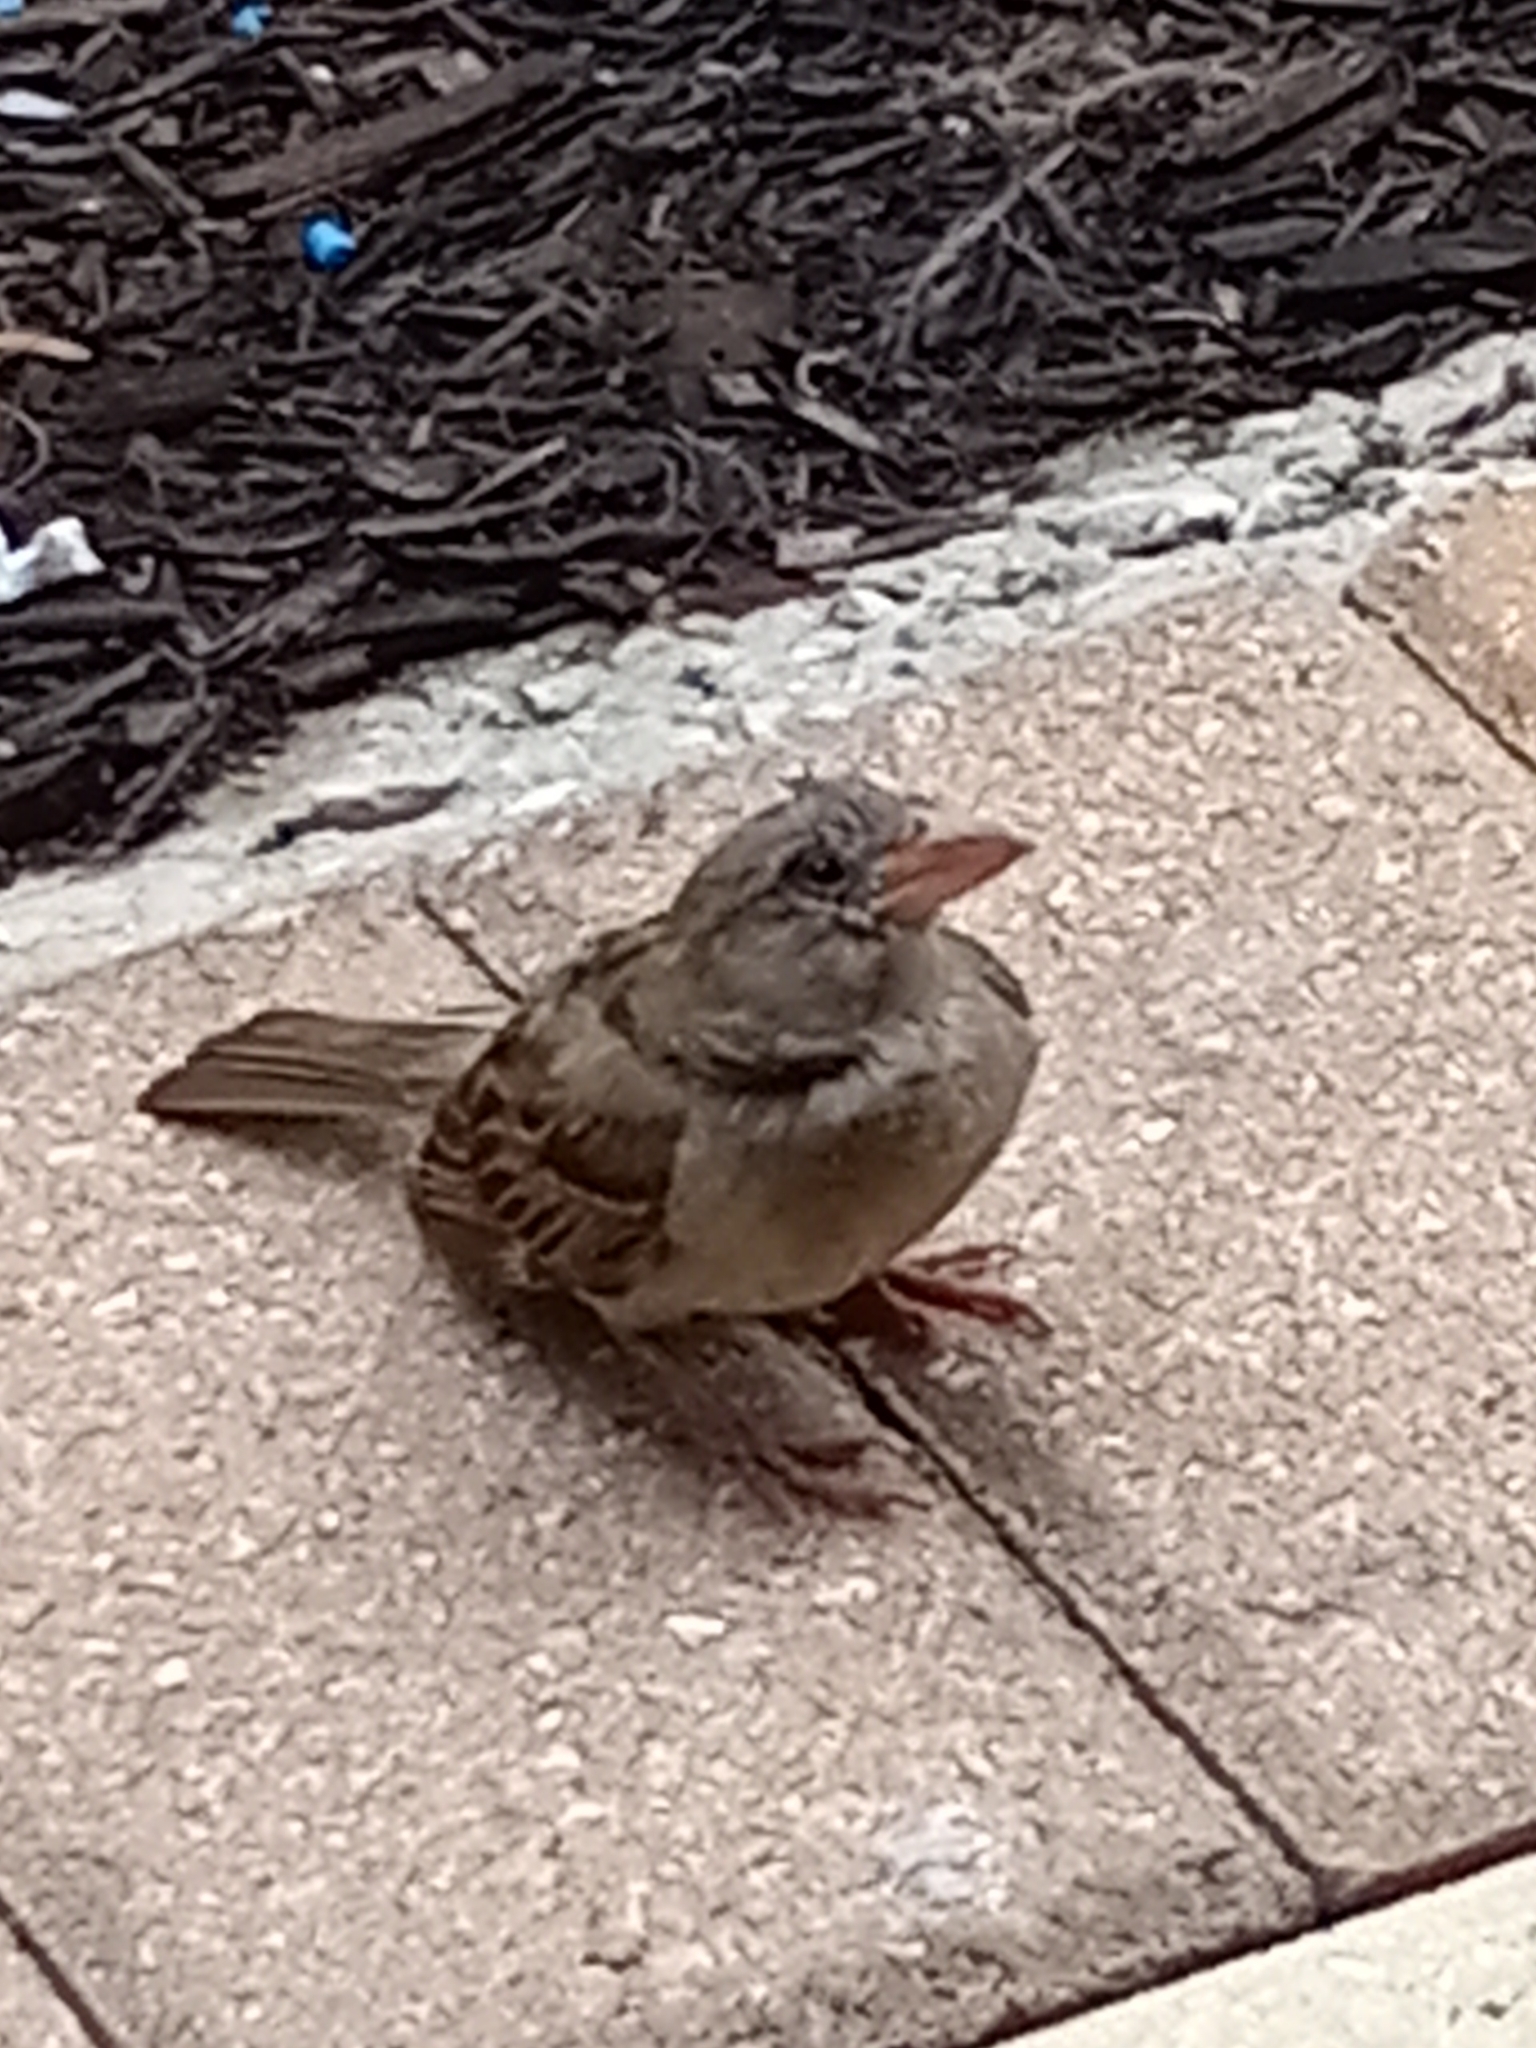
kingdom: Animalia
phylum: Chordata
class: Aves
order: Passeriformes
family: Passeridae
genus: Passer
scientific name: Passer domesticus
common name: House sparrow
